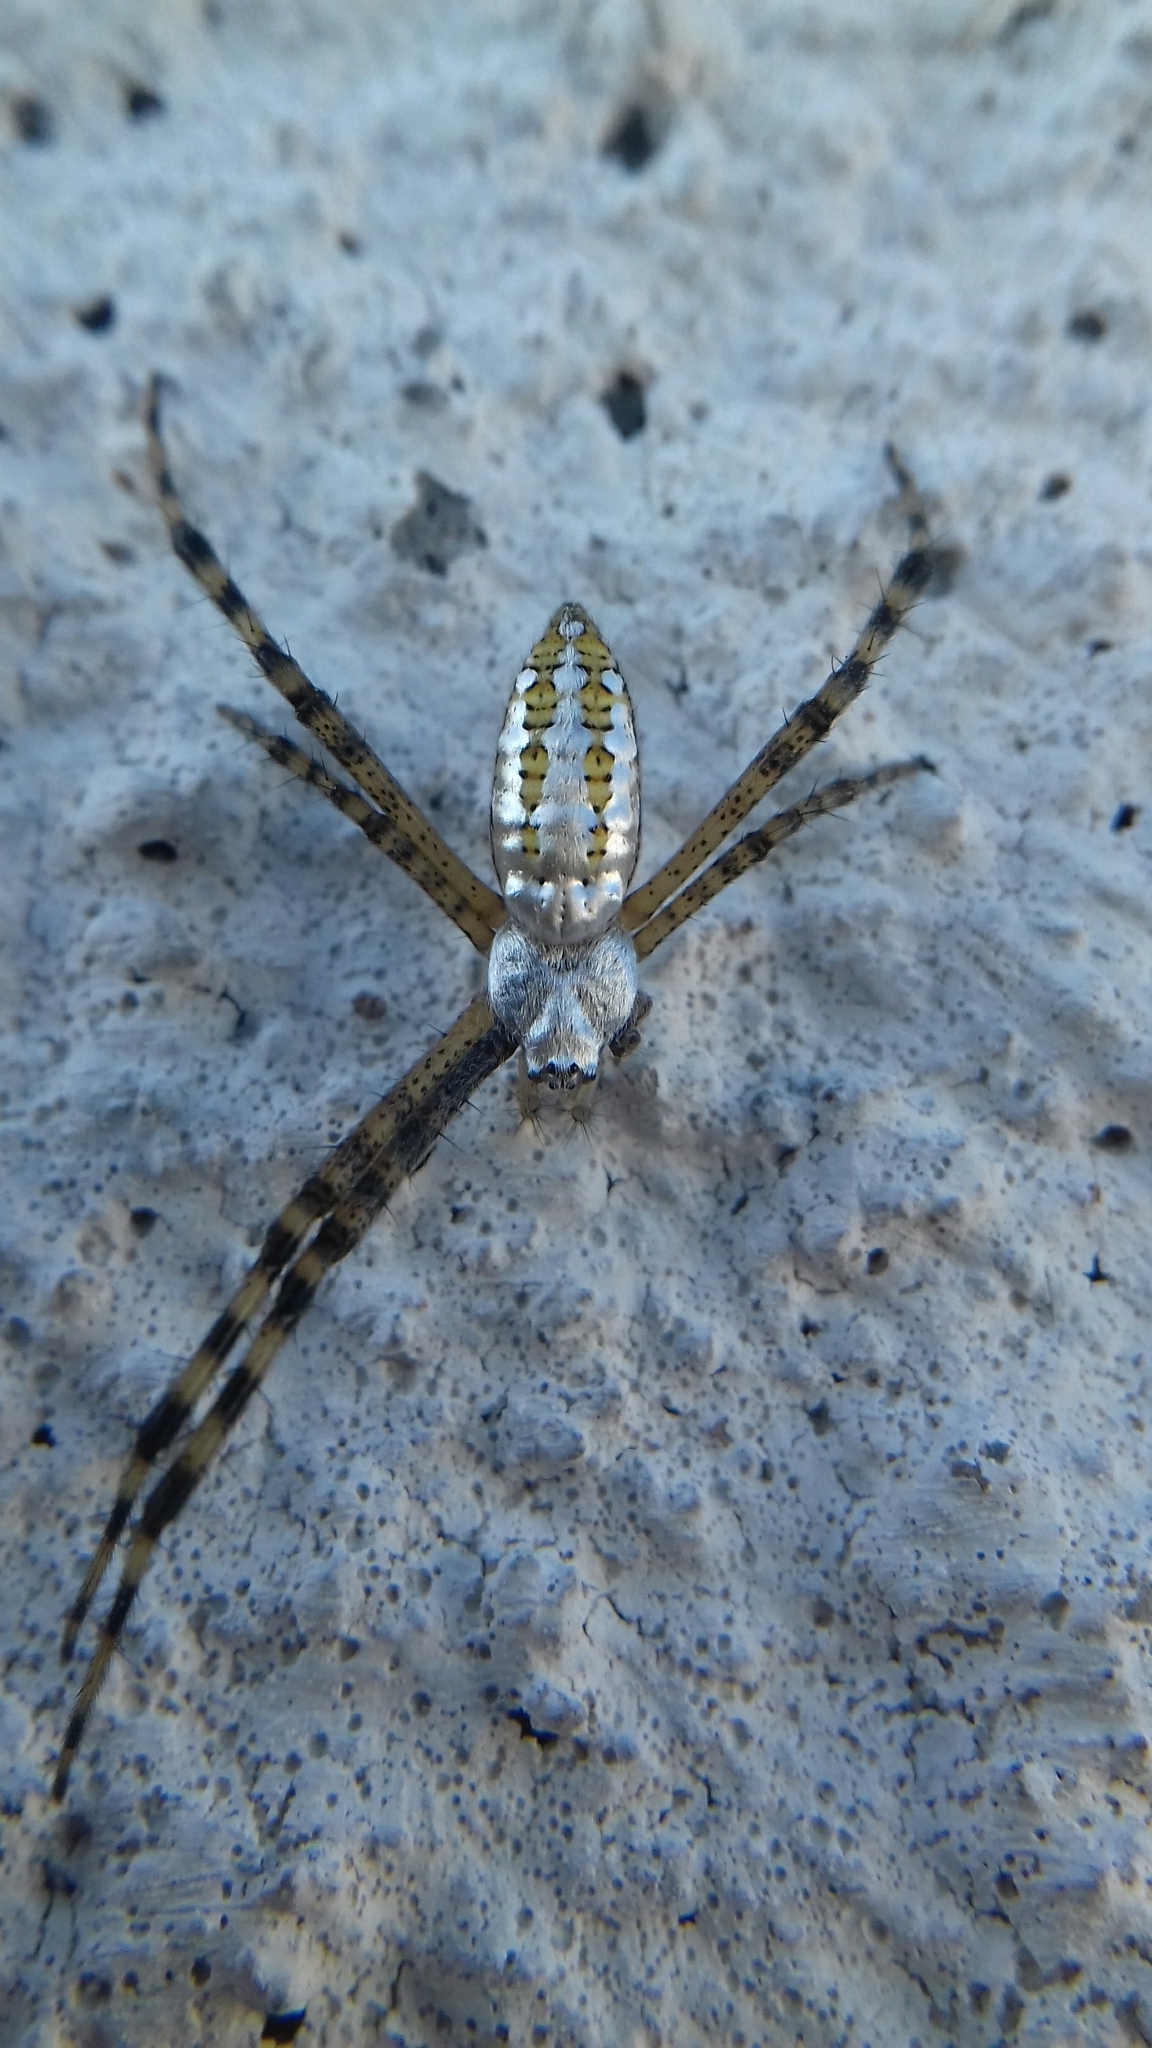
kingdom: Animalia
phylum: Arthropoda
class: Arachnida
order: Araneae
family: Araneidae
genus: Argiope
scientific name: Argiope trifasciata
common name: Banded garden spider
